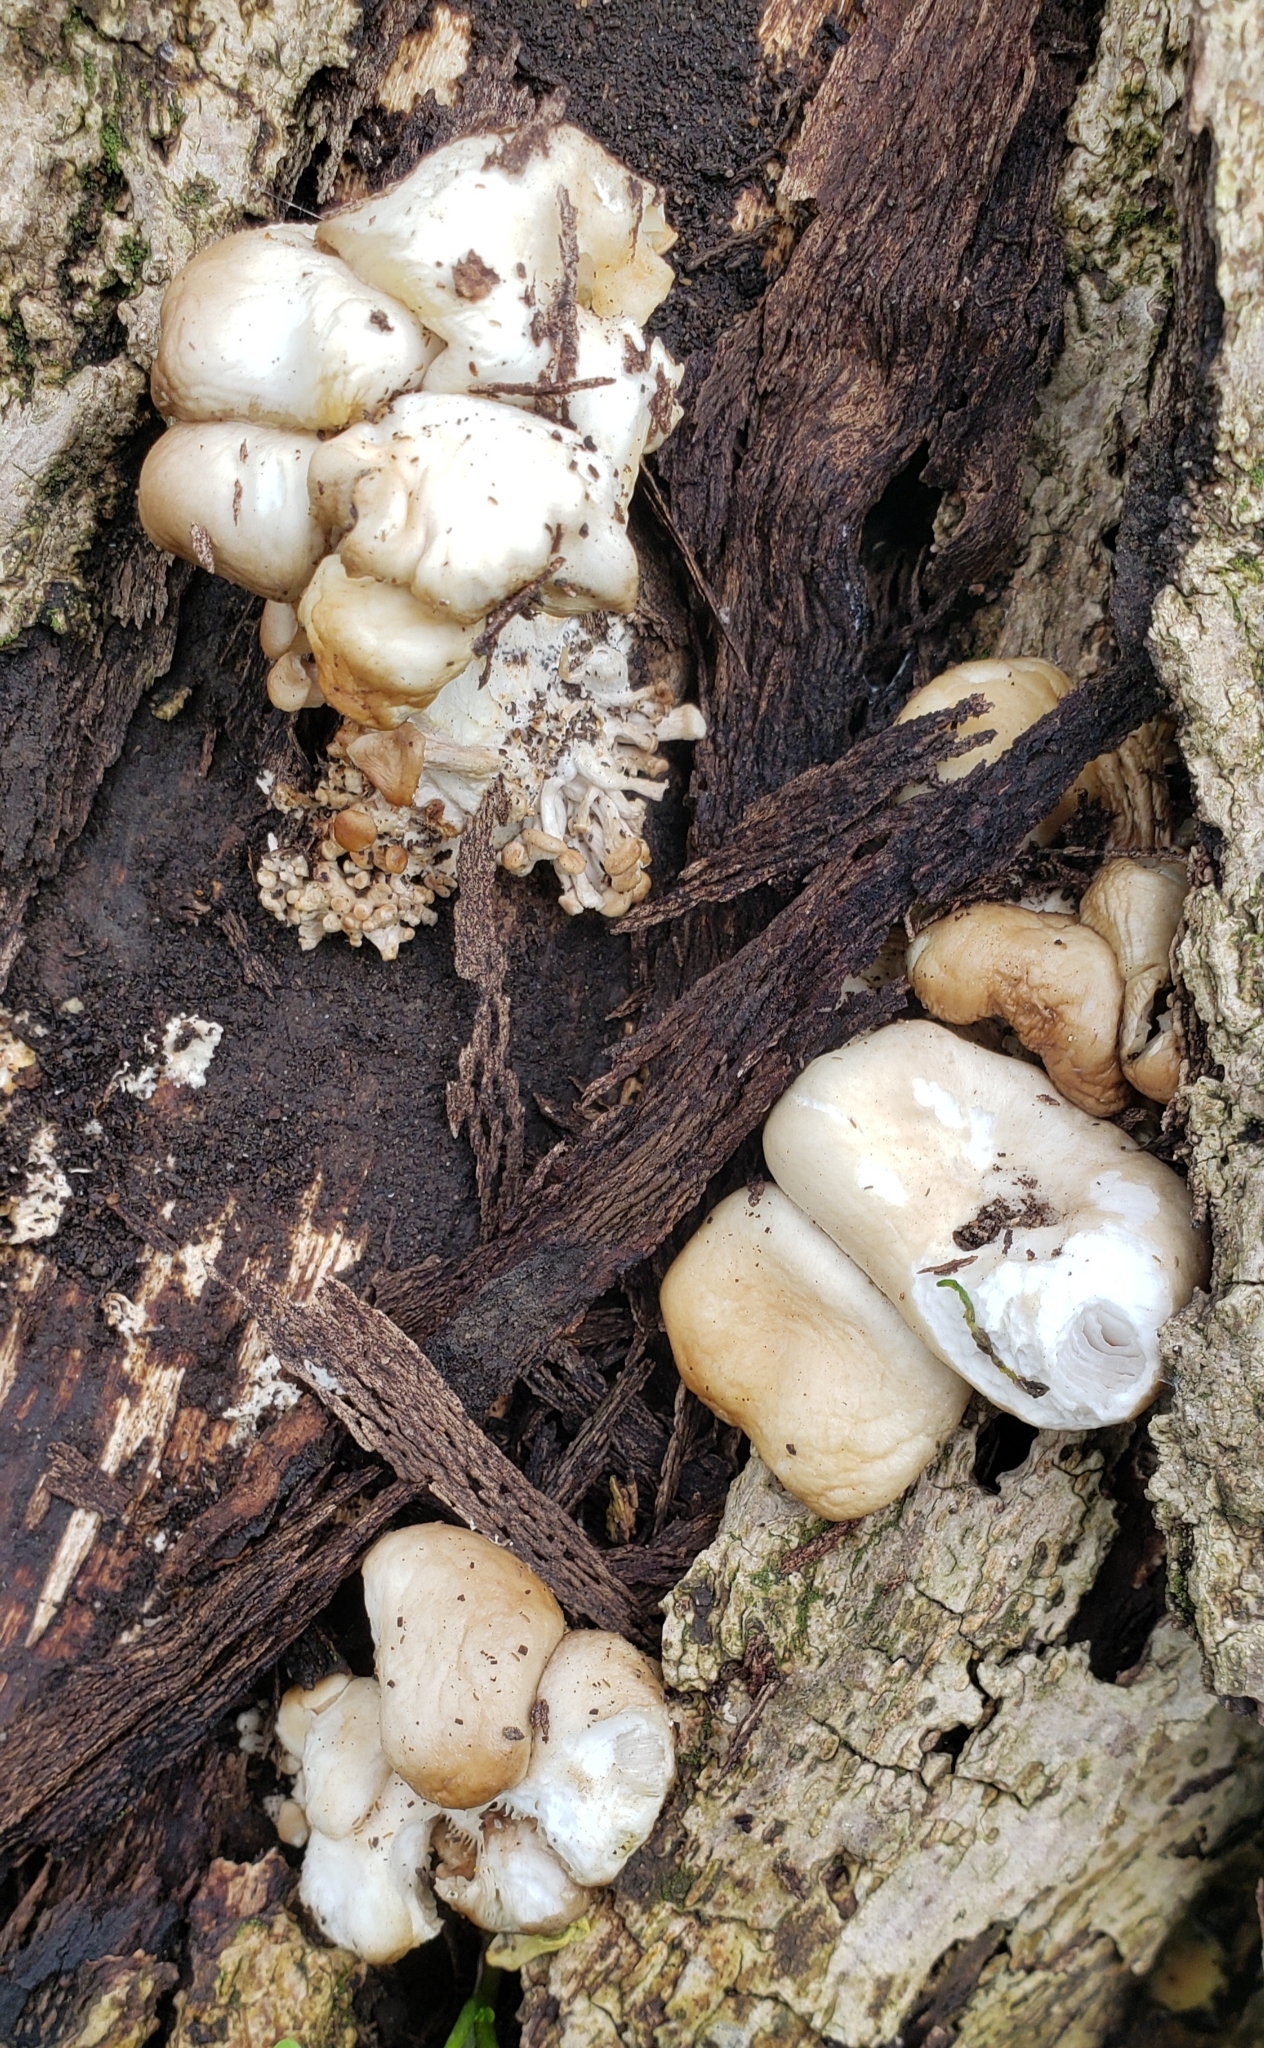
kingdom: Fungi
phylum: Basidiomycota
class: Agaricomycetes
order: Agaricales
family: Pleurotaceae
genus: Pleurotus
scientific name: Pleurotus ostreatus
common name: Oyster mushroom
